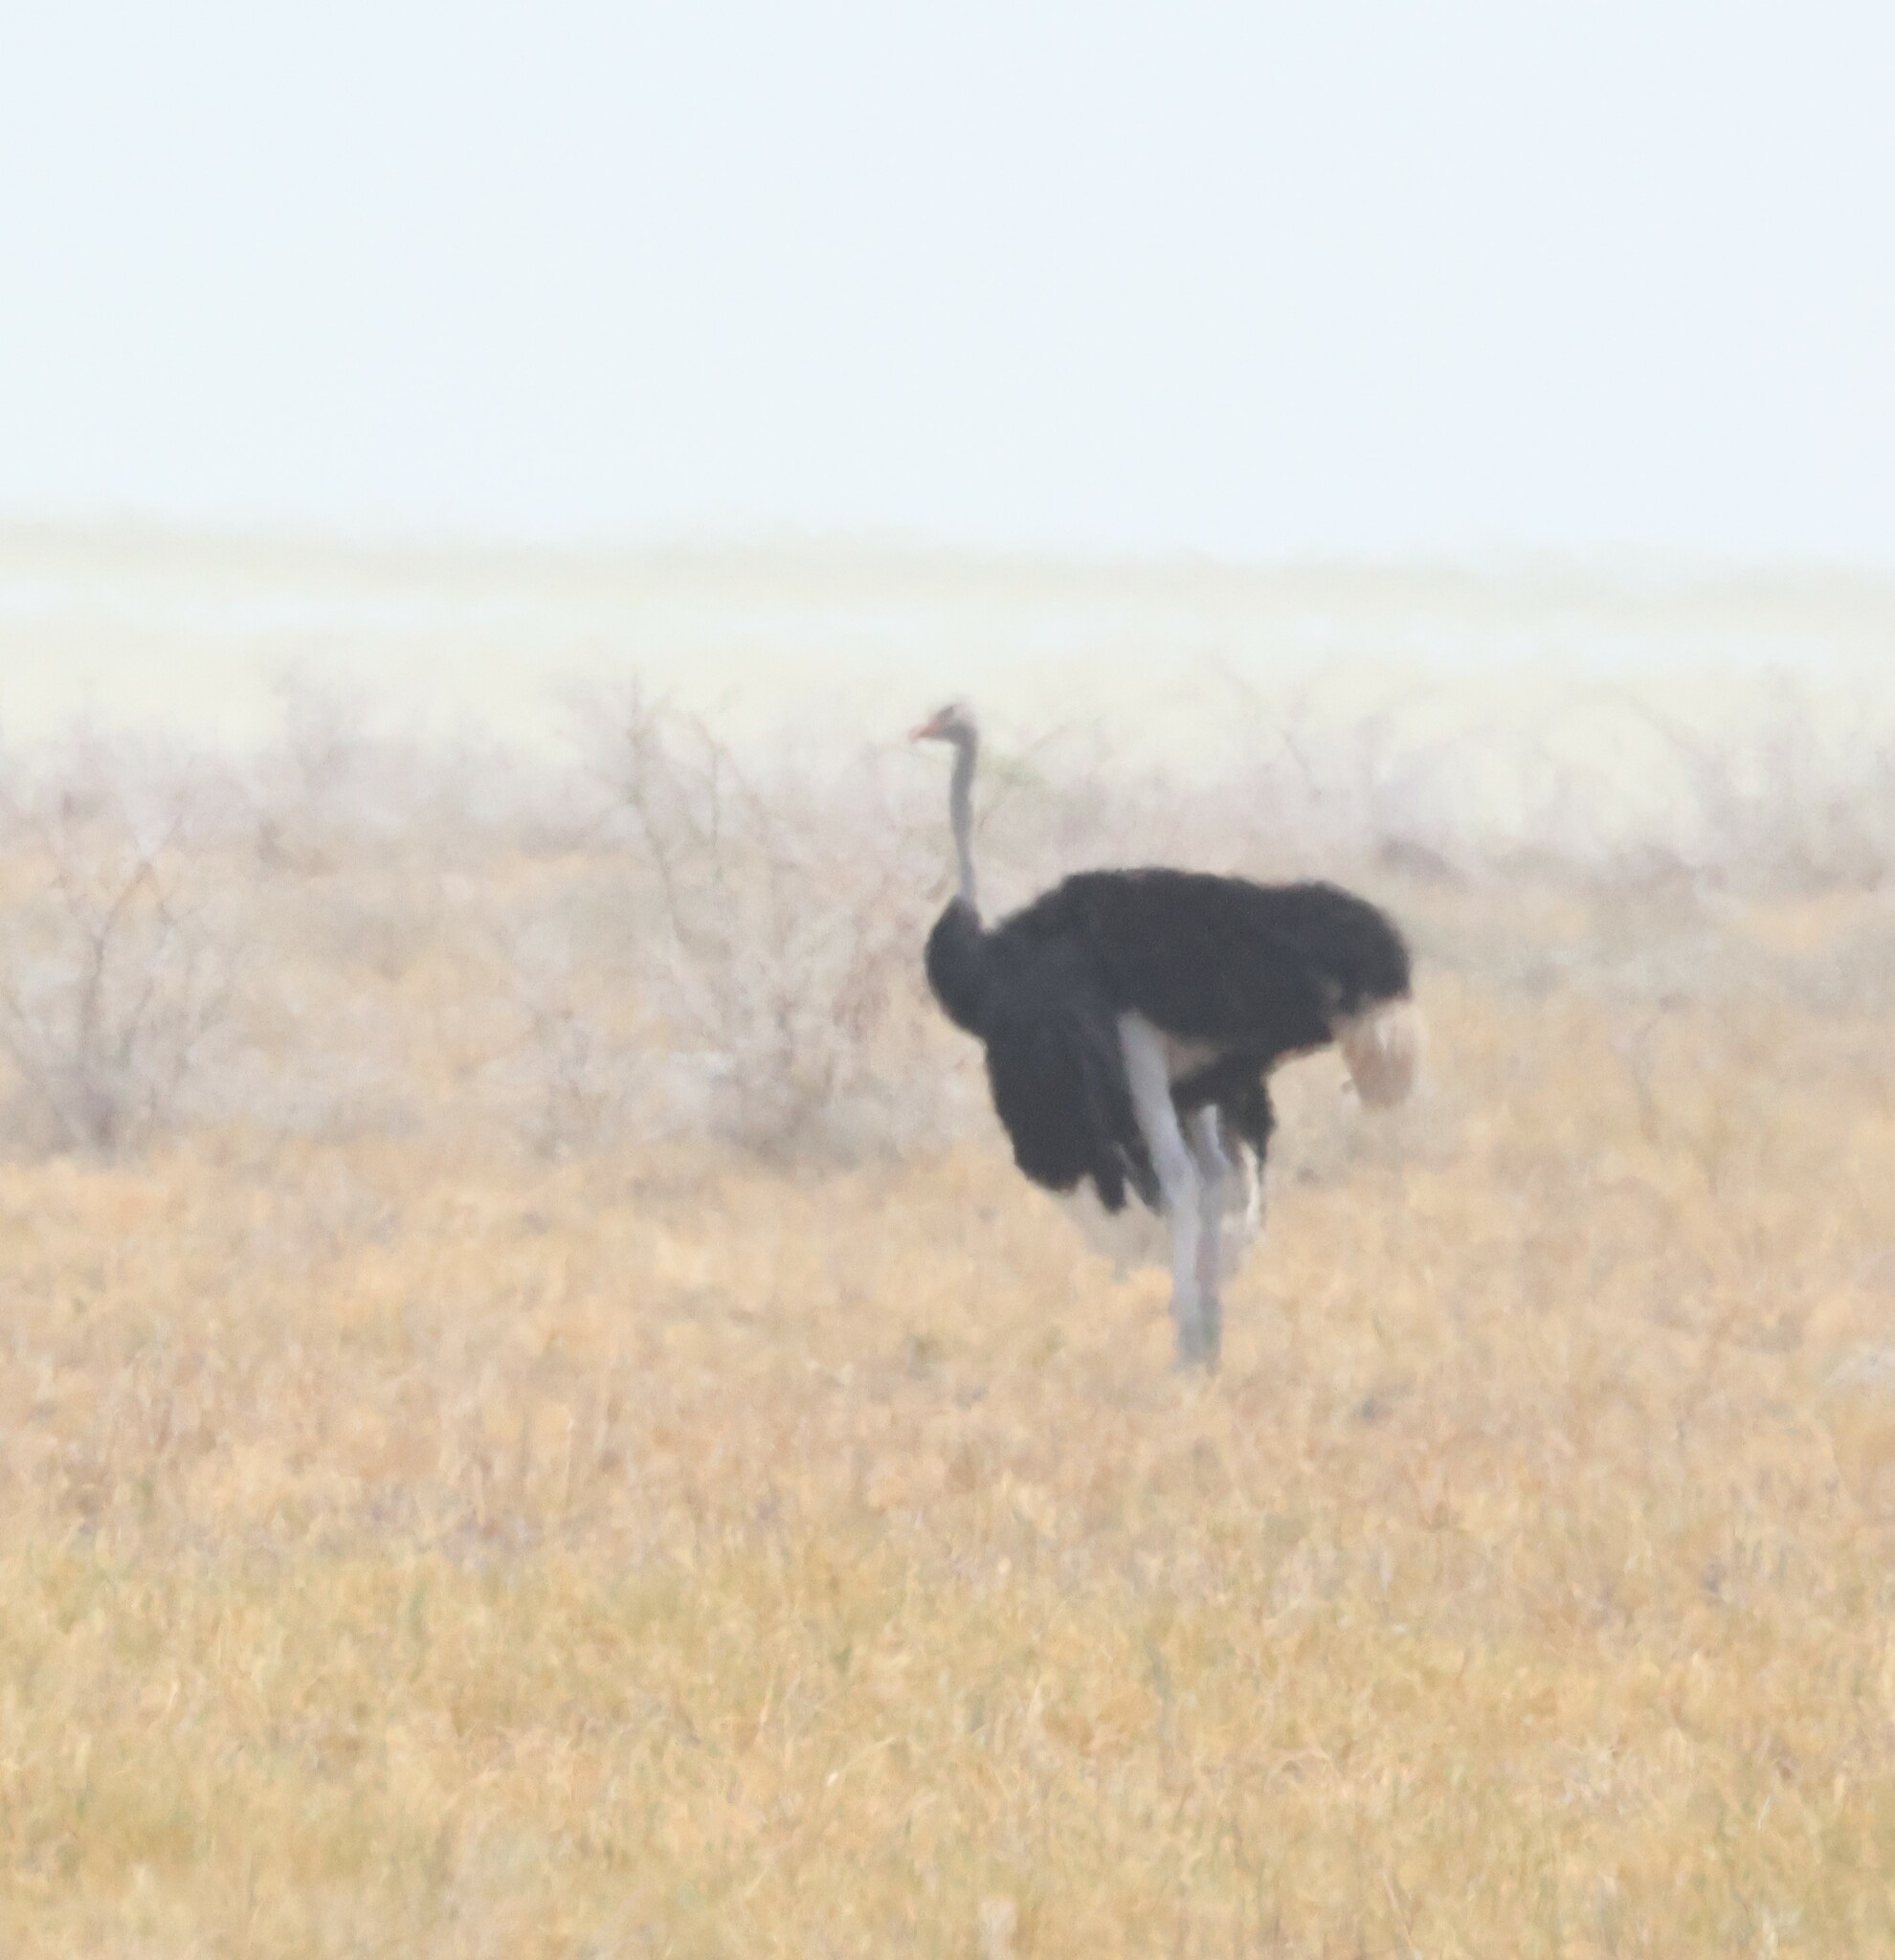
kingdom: Animalia
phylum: Chordata
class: Aves
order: Struthioniformes
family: Struthionidae
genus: Struthio
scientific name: Struthio camelus
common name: Common ostrich
